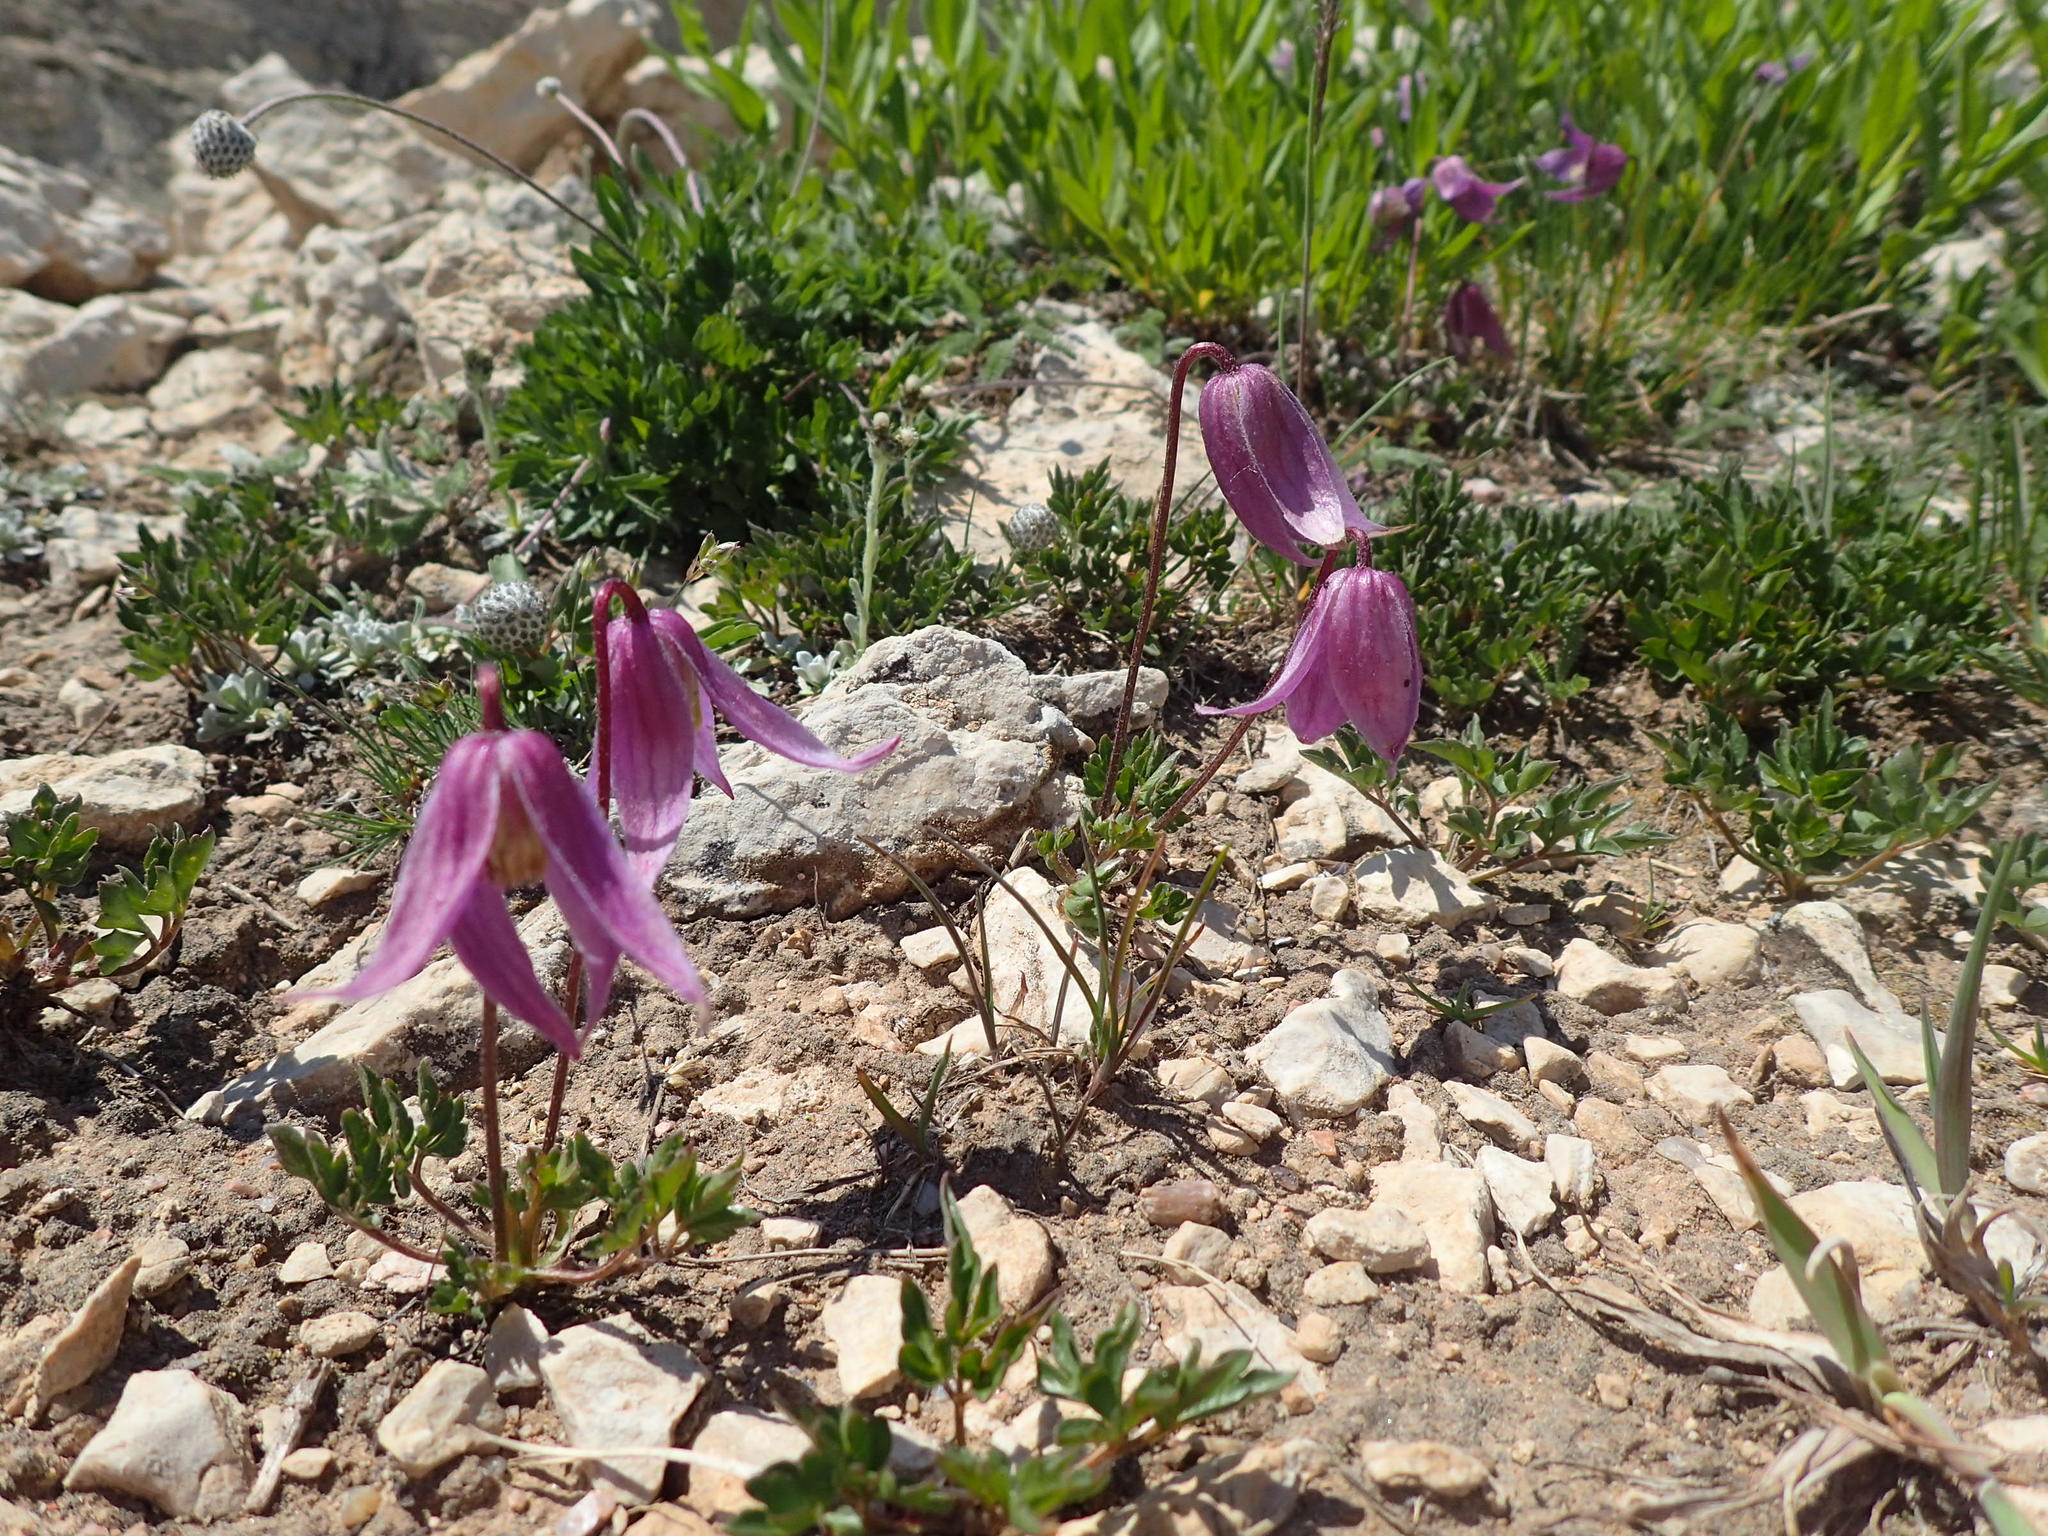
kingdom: Plantae
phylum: Tracheophyta
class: Magnoliopsida
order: Ranunculales
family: Ranunculaceae
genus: Clematis
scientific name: Clematis columbiana
